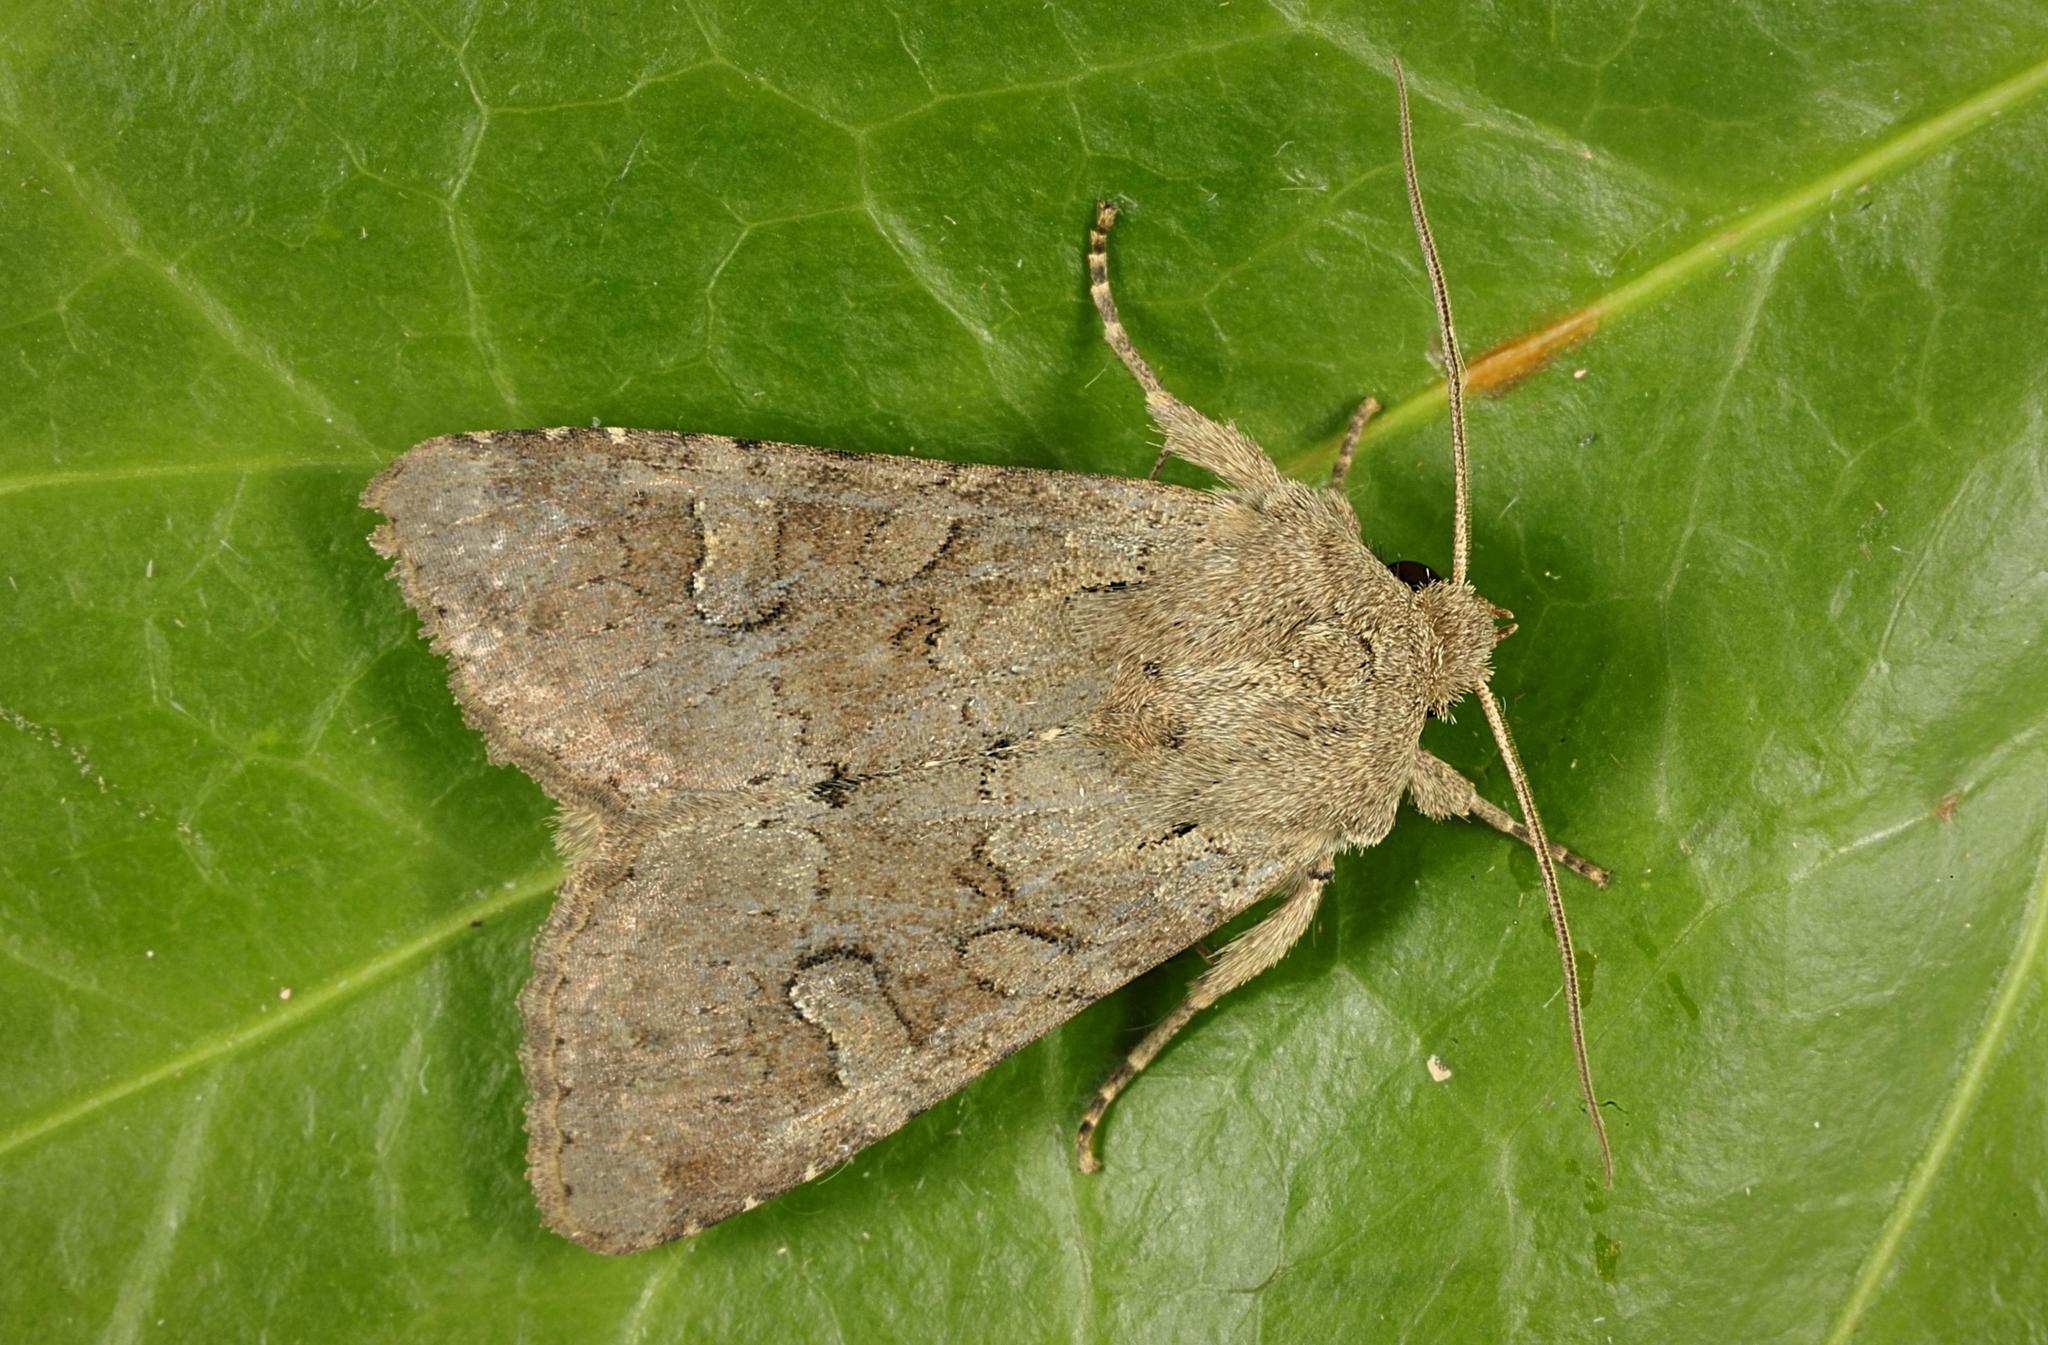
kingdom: Animalia
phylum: Arthropoda
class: Insecta
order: Lepidoptera
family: Noctuidae
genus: Apamea
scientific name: Apamea sordens
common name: Rustic shoulder-knot
